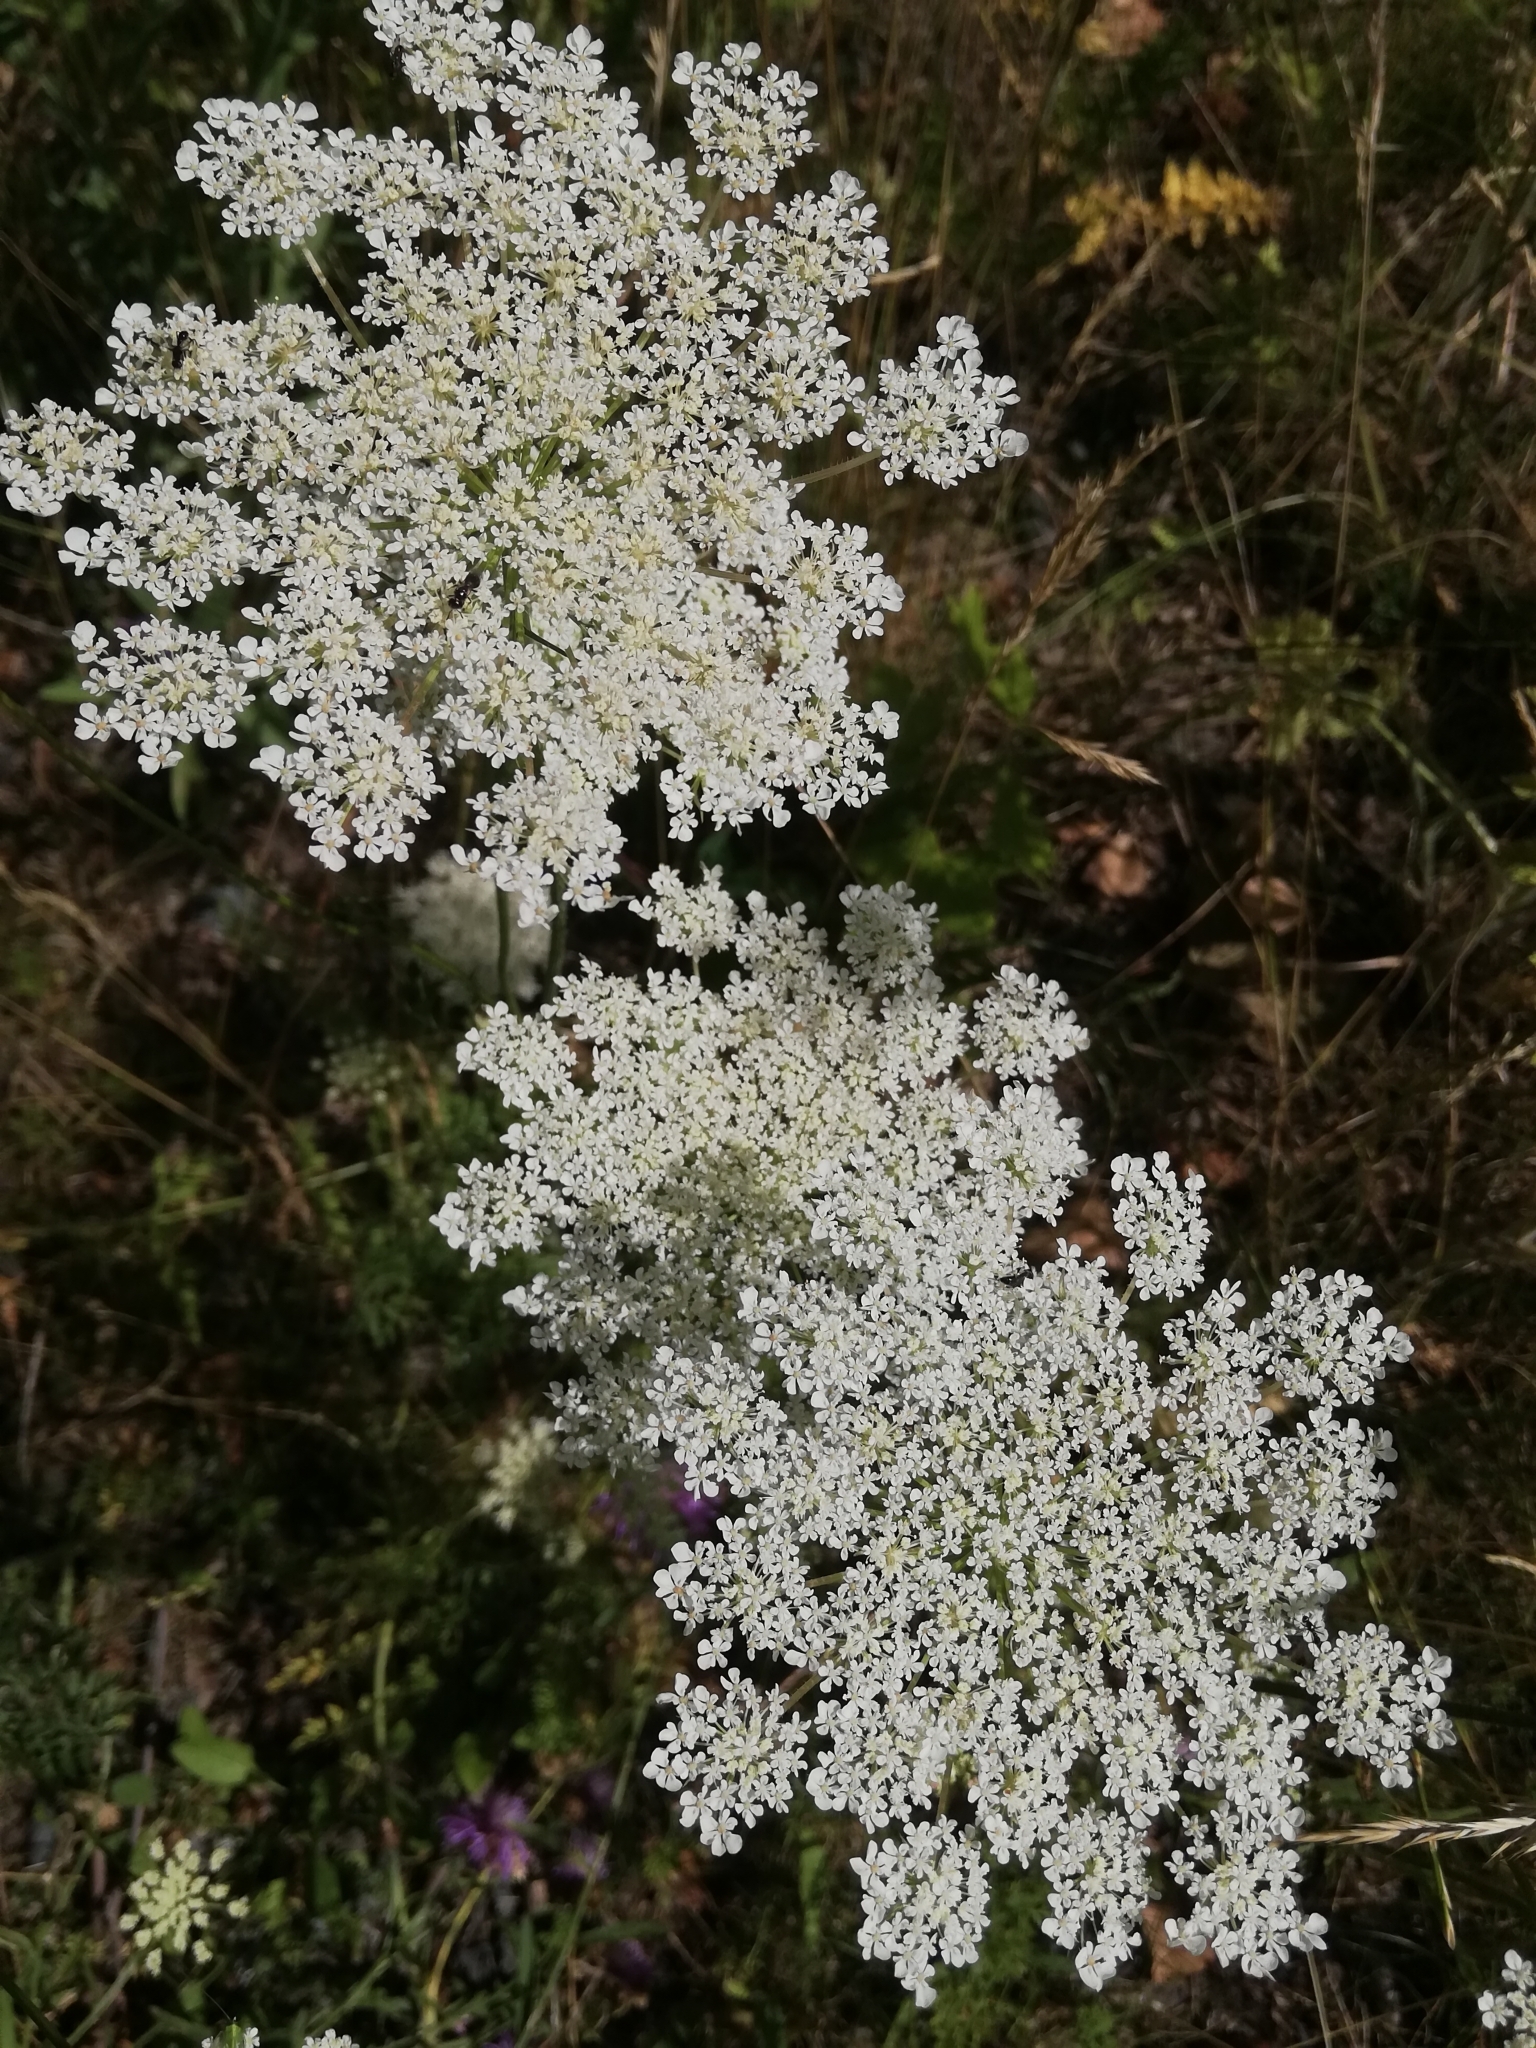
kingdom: Plantae
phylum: Tracheophyta
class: Magnoliopsida
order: Apiales
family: Apiaceae
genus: Daucus
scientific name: Daucus carota
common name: Wild carrot
